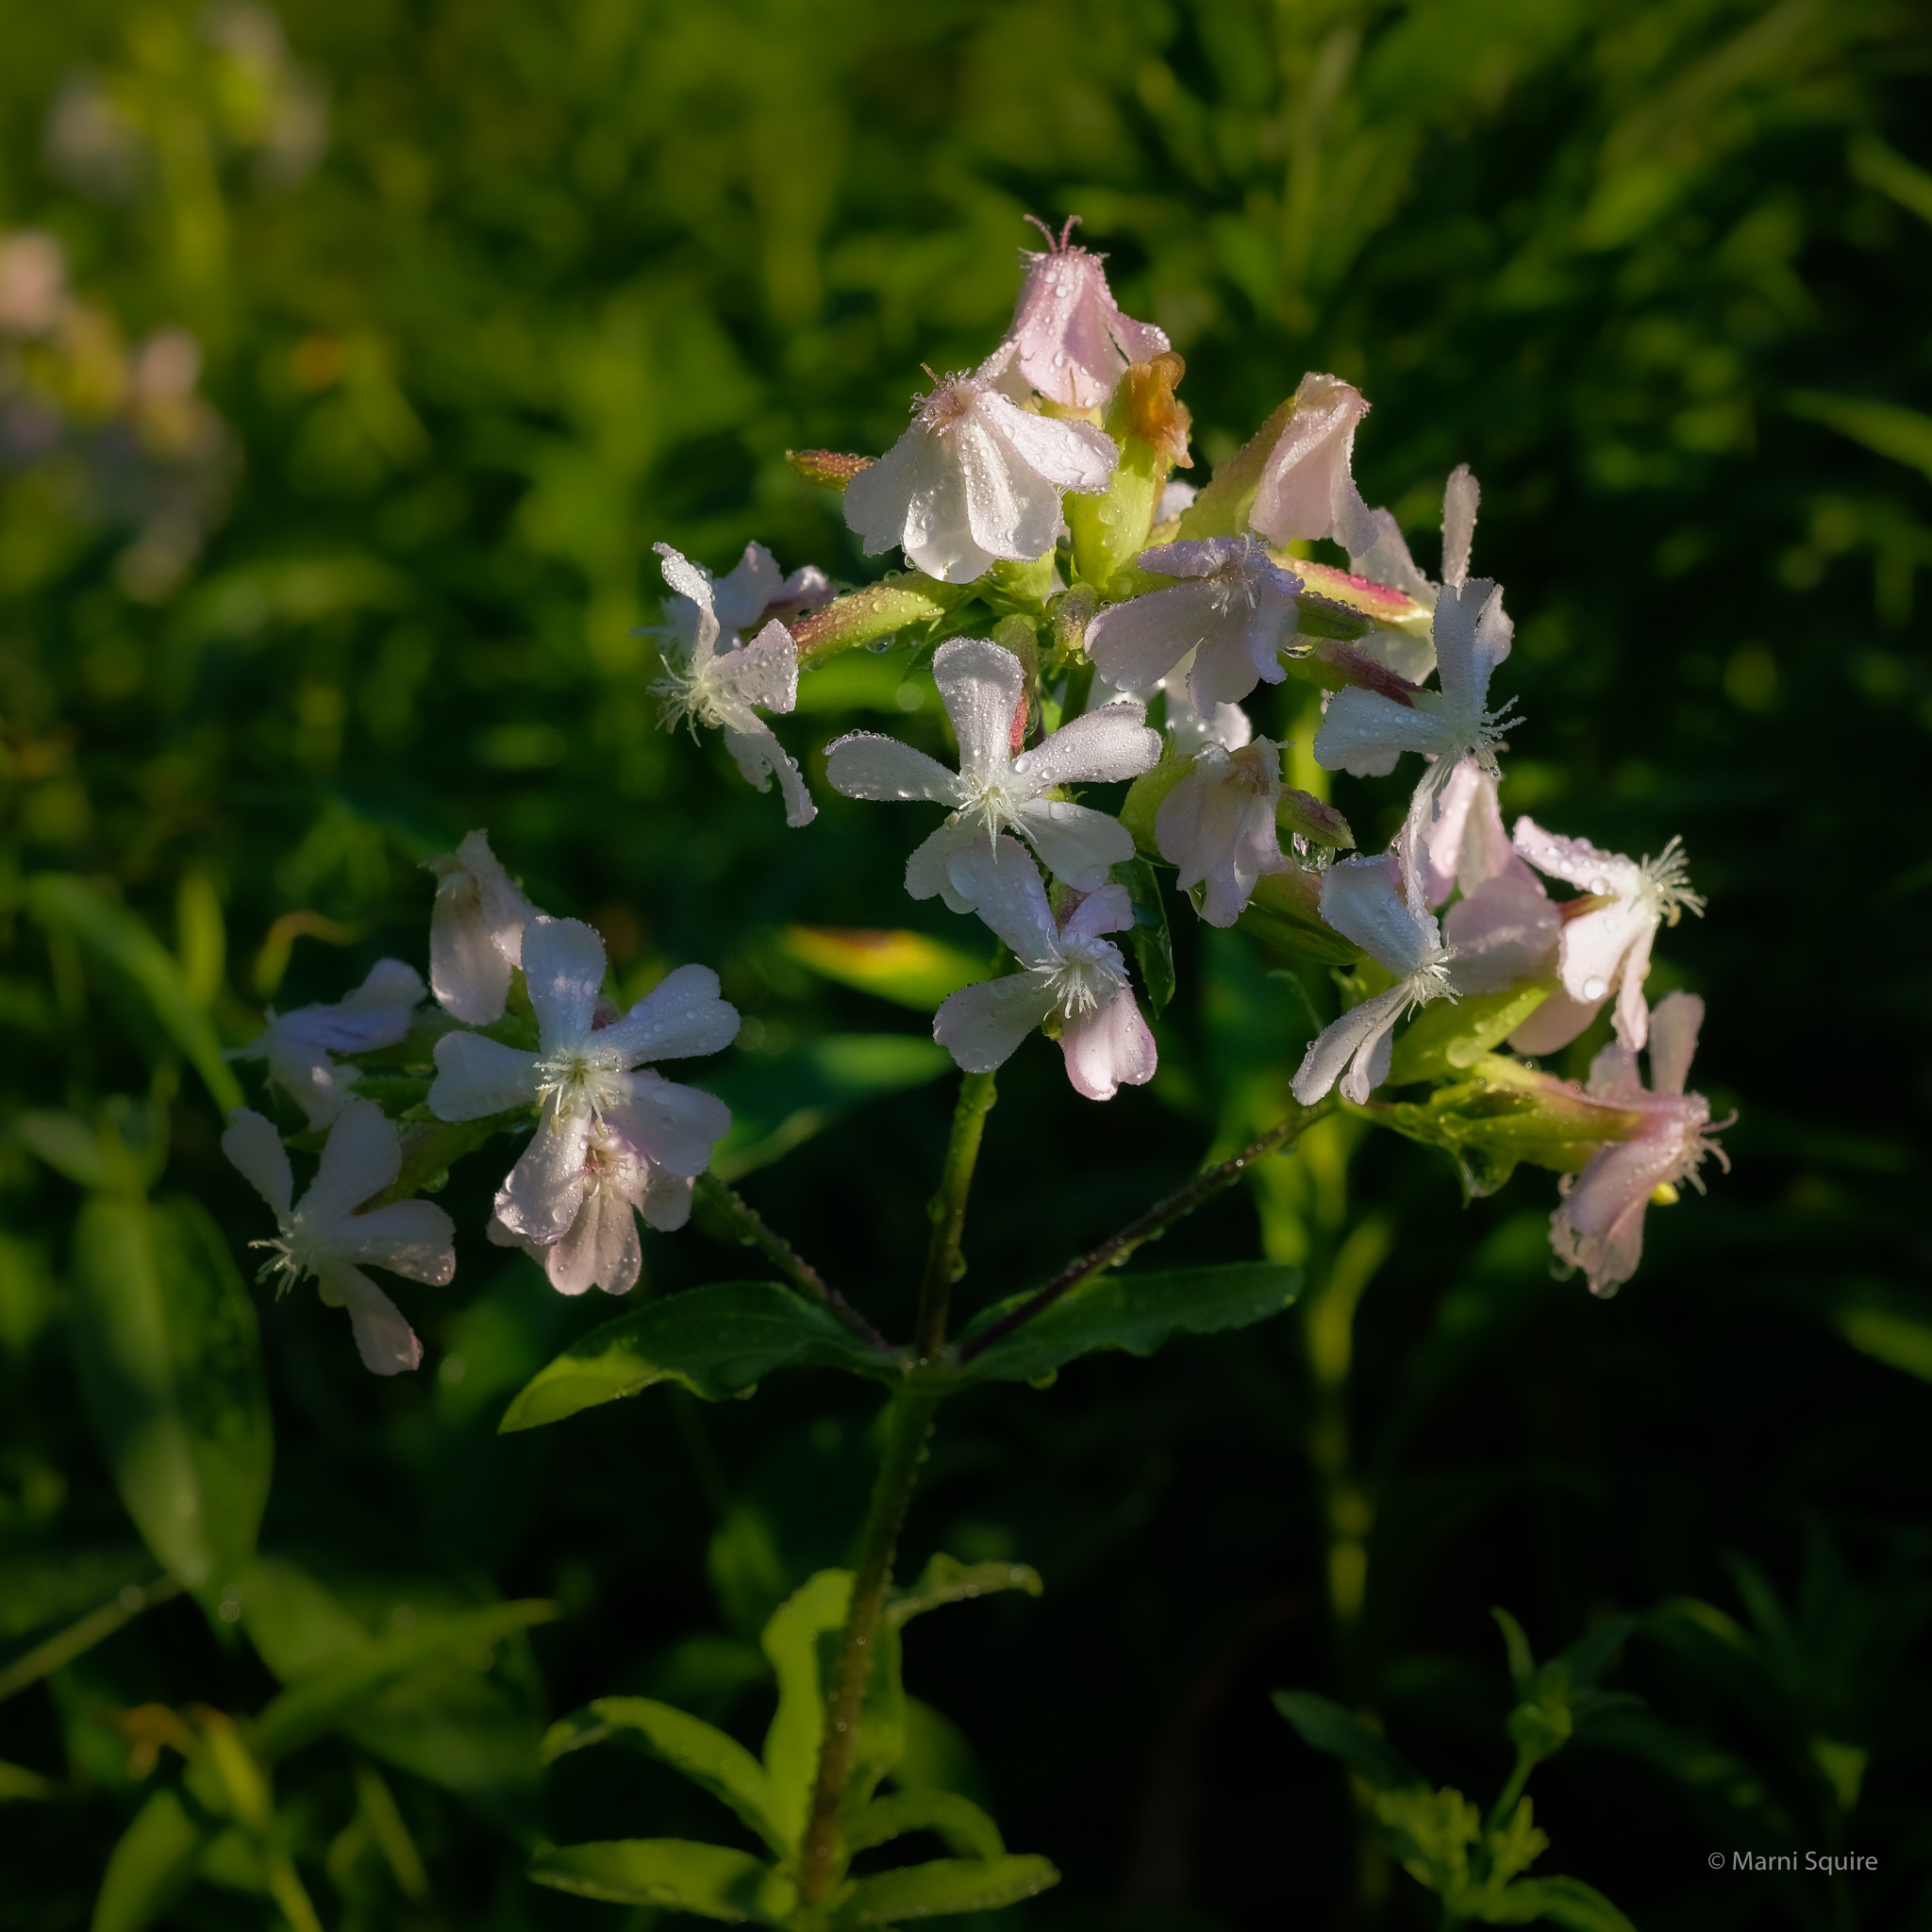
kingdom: Plantae
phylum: Tracheophyta
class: Magnoliopsida
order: Caryophyllales
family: Caryophyllaceae
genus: Saponaria
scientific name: Saponaria officinalis
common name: Soapwort
